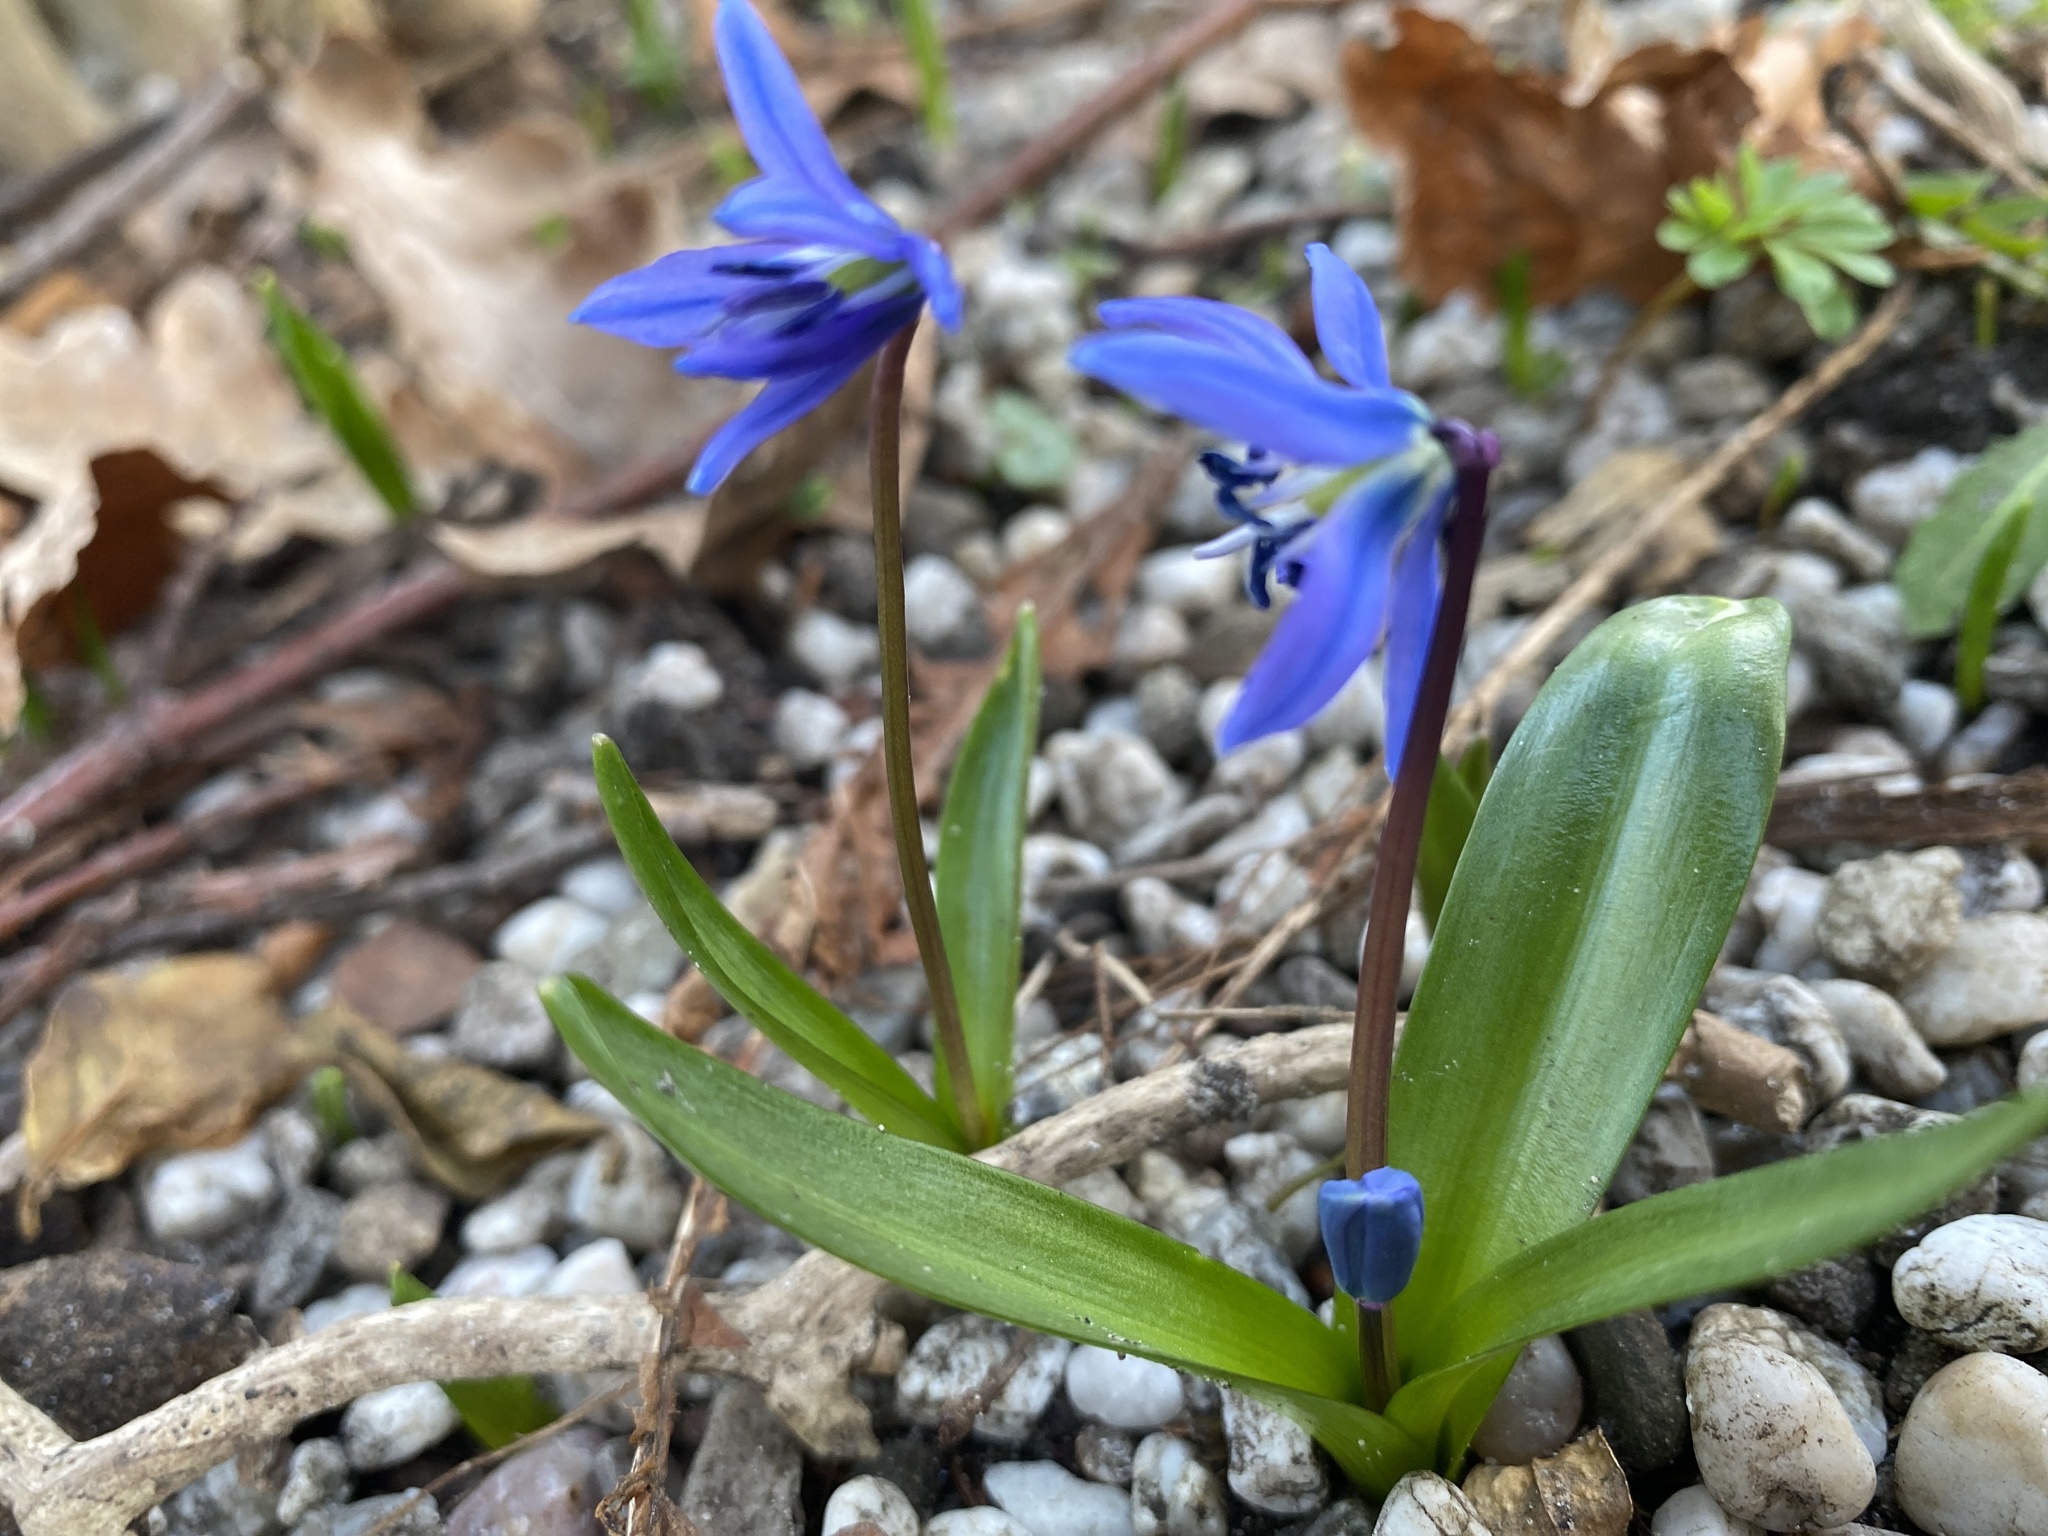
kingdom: Plantae
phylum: Tracheophyta
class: Liliopsida
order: Asparagales
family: Asparagaceae
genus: Scilla
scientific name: Scilla siberica
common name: Siberian squill
